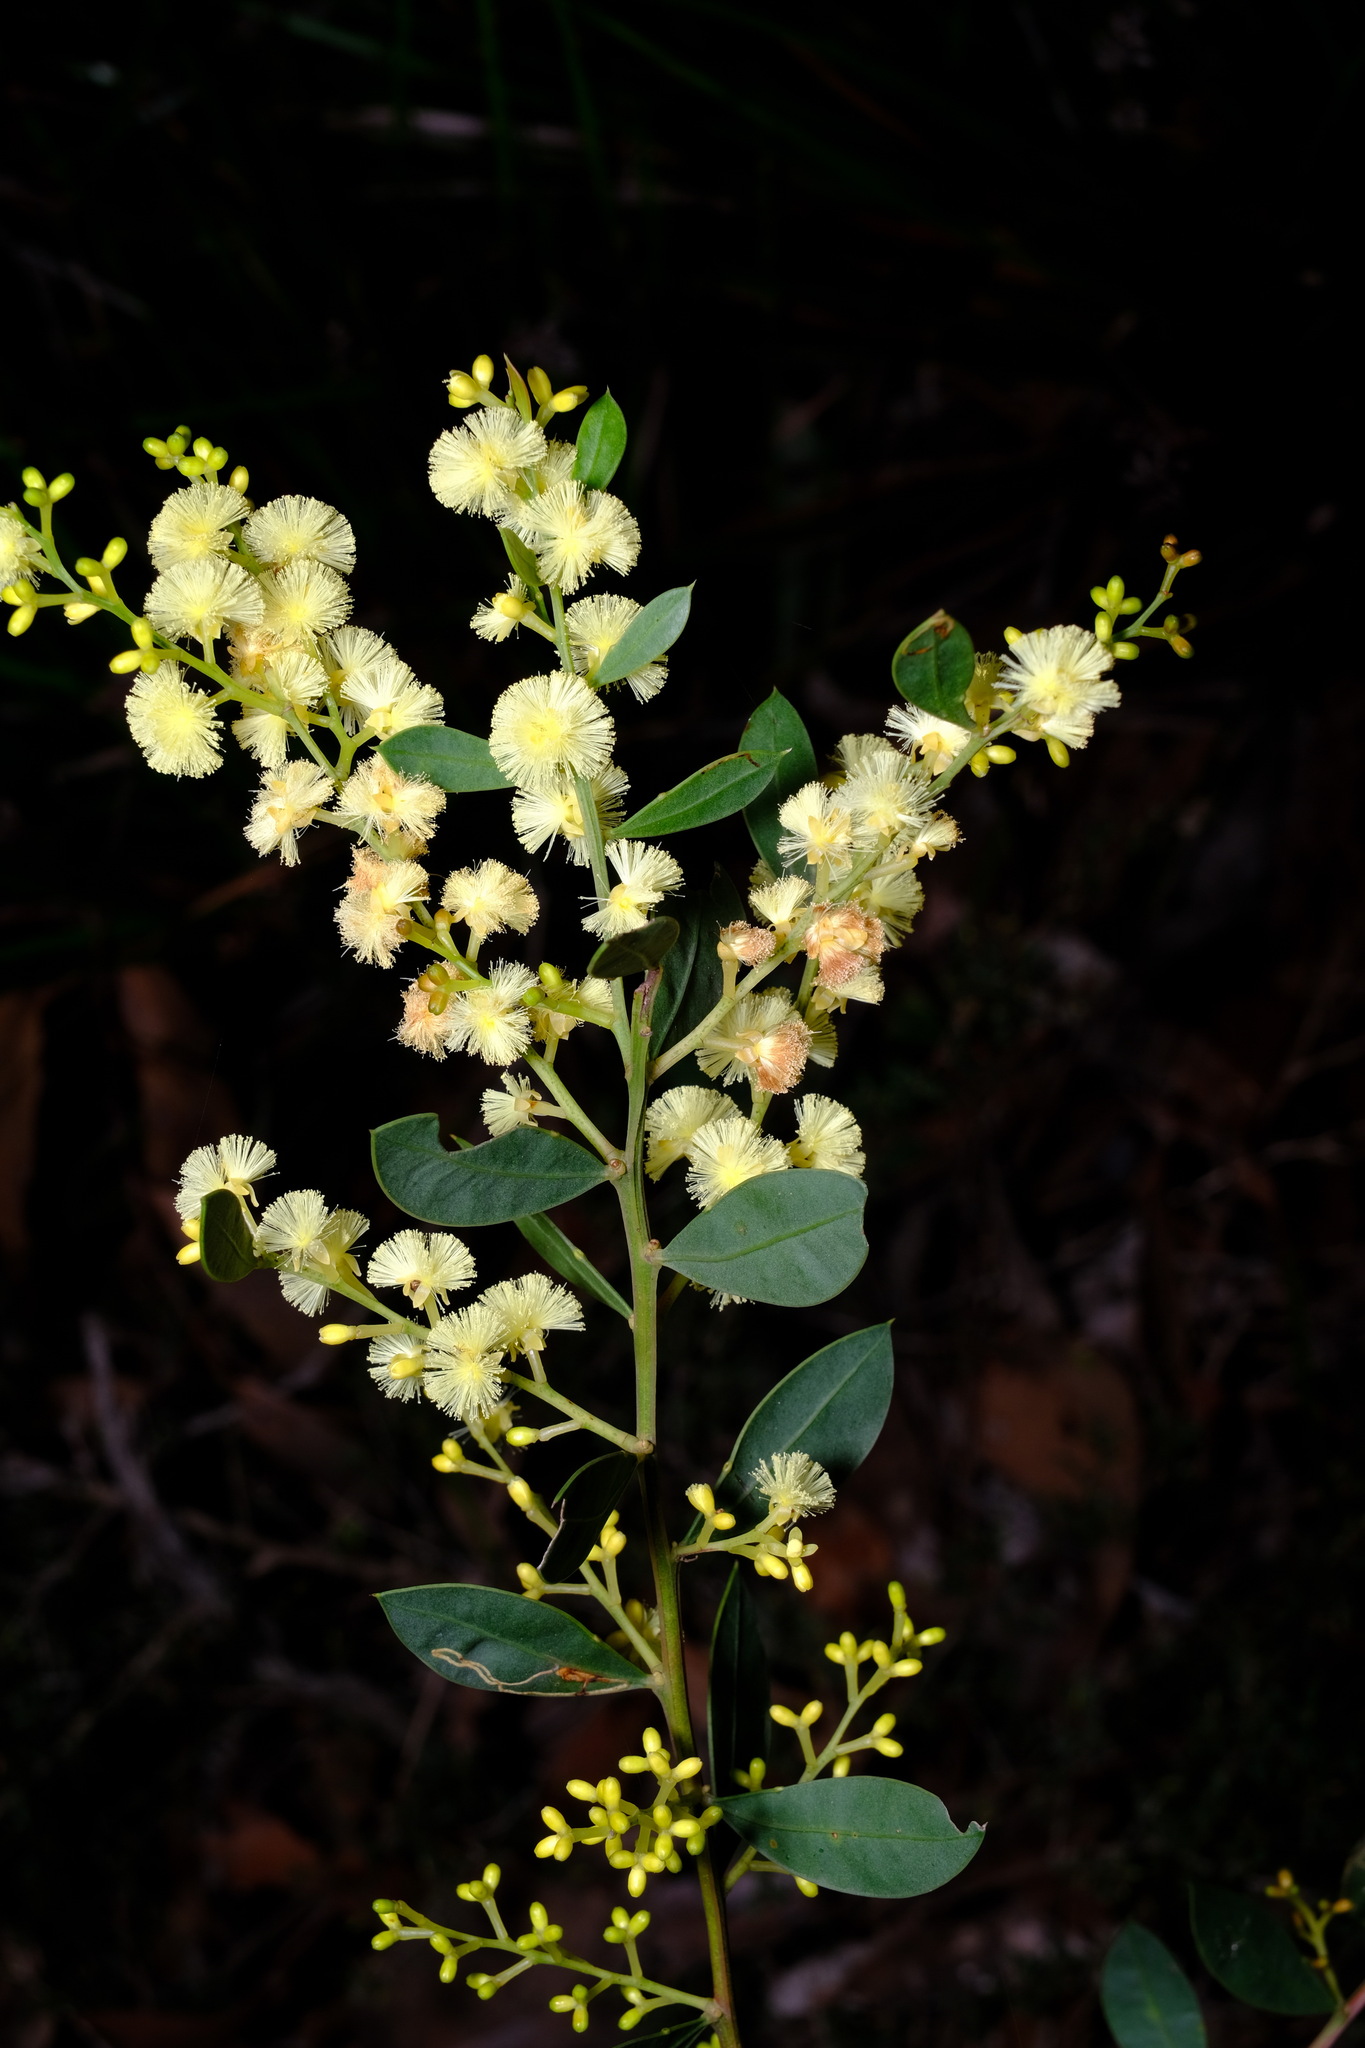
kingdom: Plantae
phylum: Tracheophyta
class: Magnoliopsida
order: Fabales
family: Fabaceae
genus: Acacia
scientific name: Acacia myrtifolia
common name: Myrtle wattle
